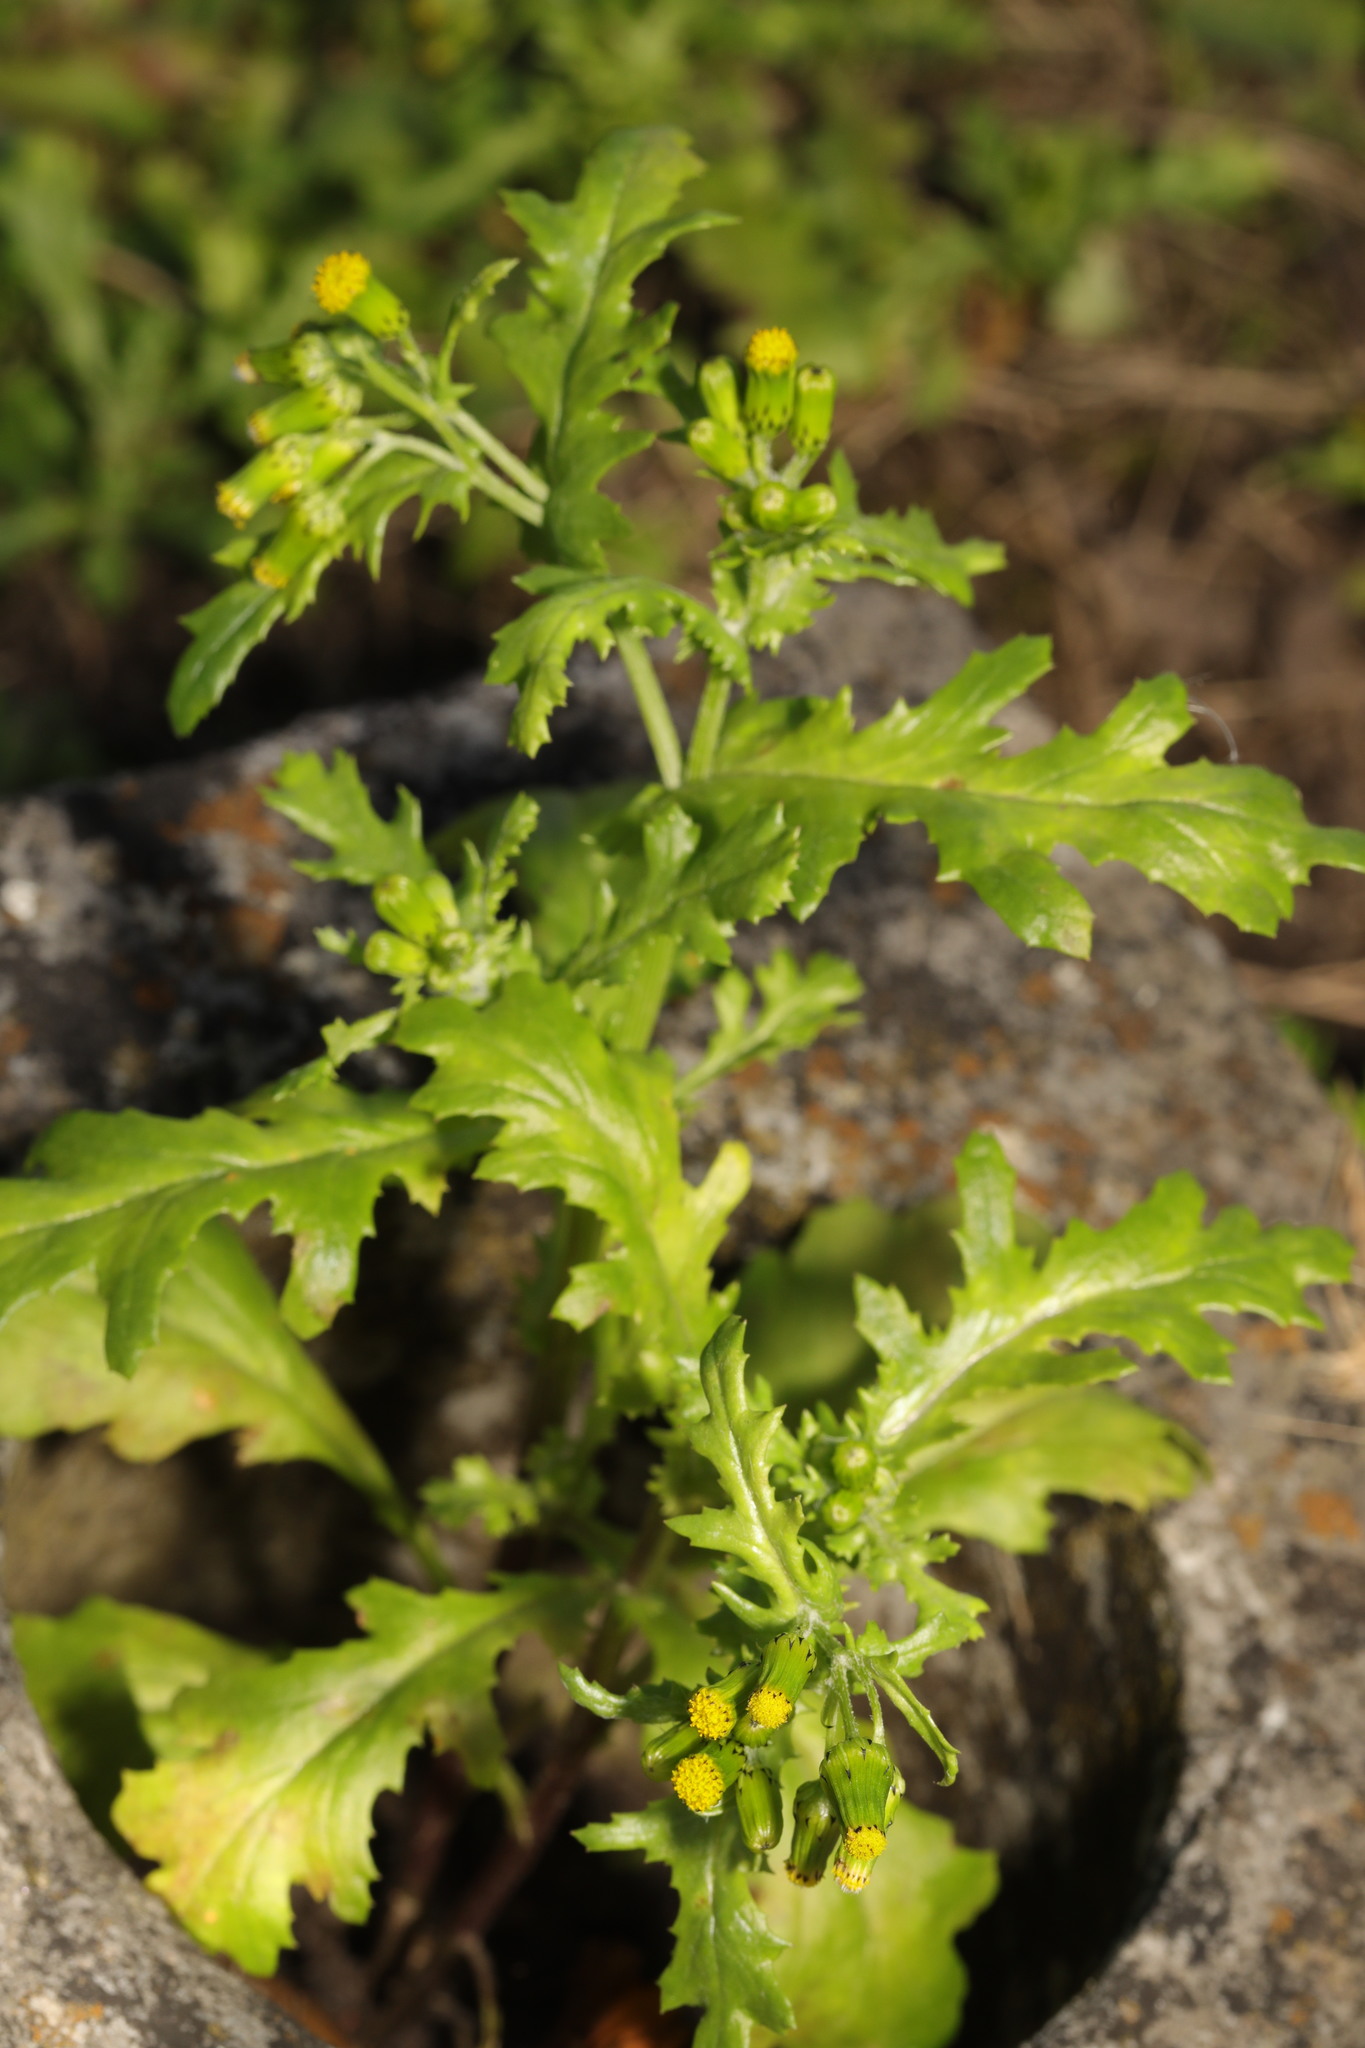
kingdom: Plantae
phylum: Tracheophyta
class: Magnoliopsida
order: Asterales
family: Asteraceae
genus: Senecio
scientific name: Senecio vulgaris
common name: Old-man-in-the-spring
